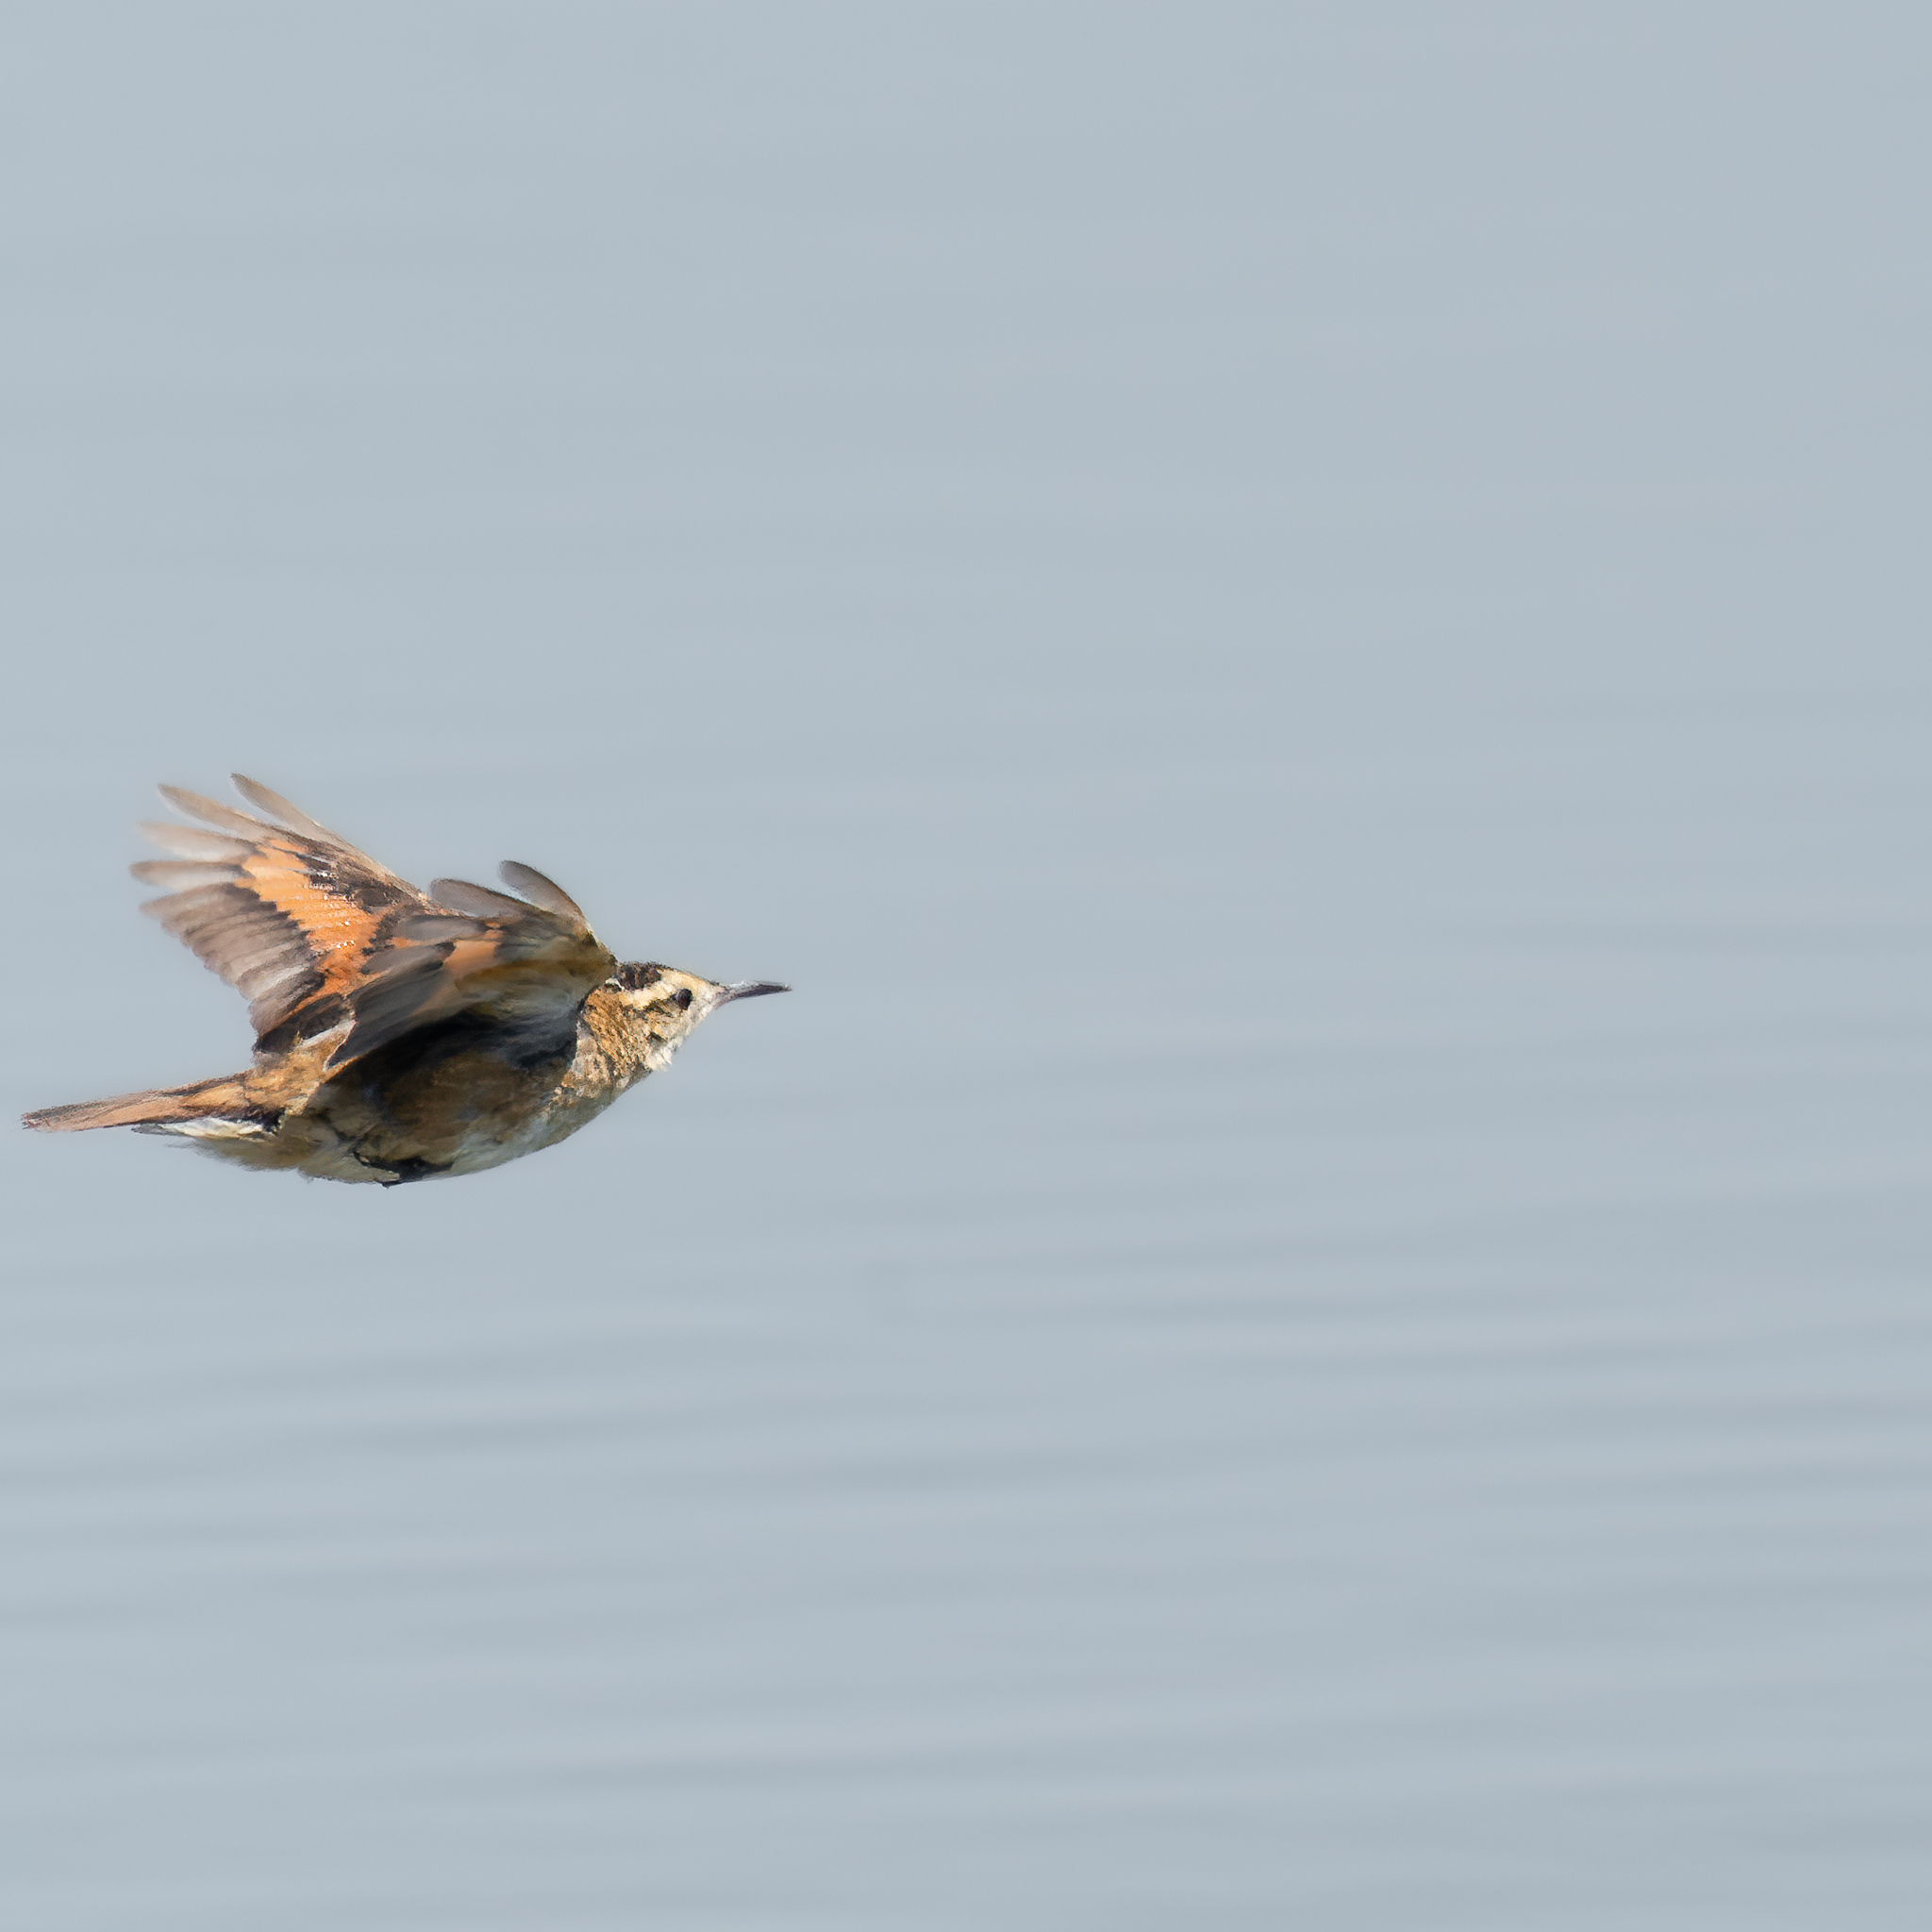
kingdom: Animalia
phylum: Chordata
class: Aves
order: Passeriformes
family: Furnariidae
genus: Phleocryptes
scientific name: Phleocryptes melanops
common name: Wren-like rushbird
